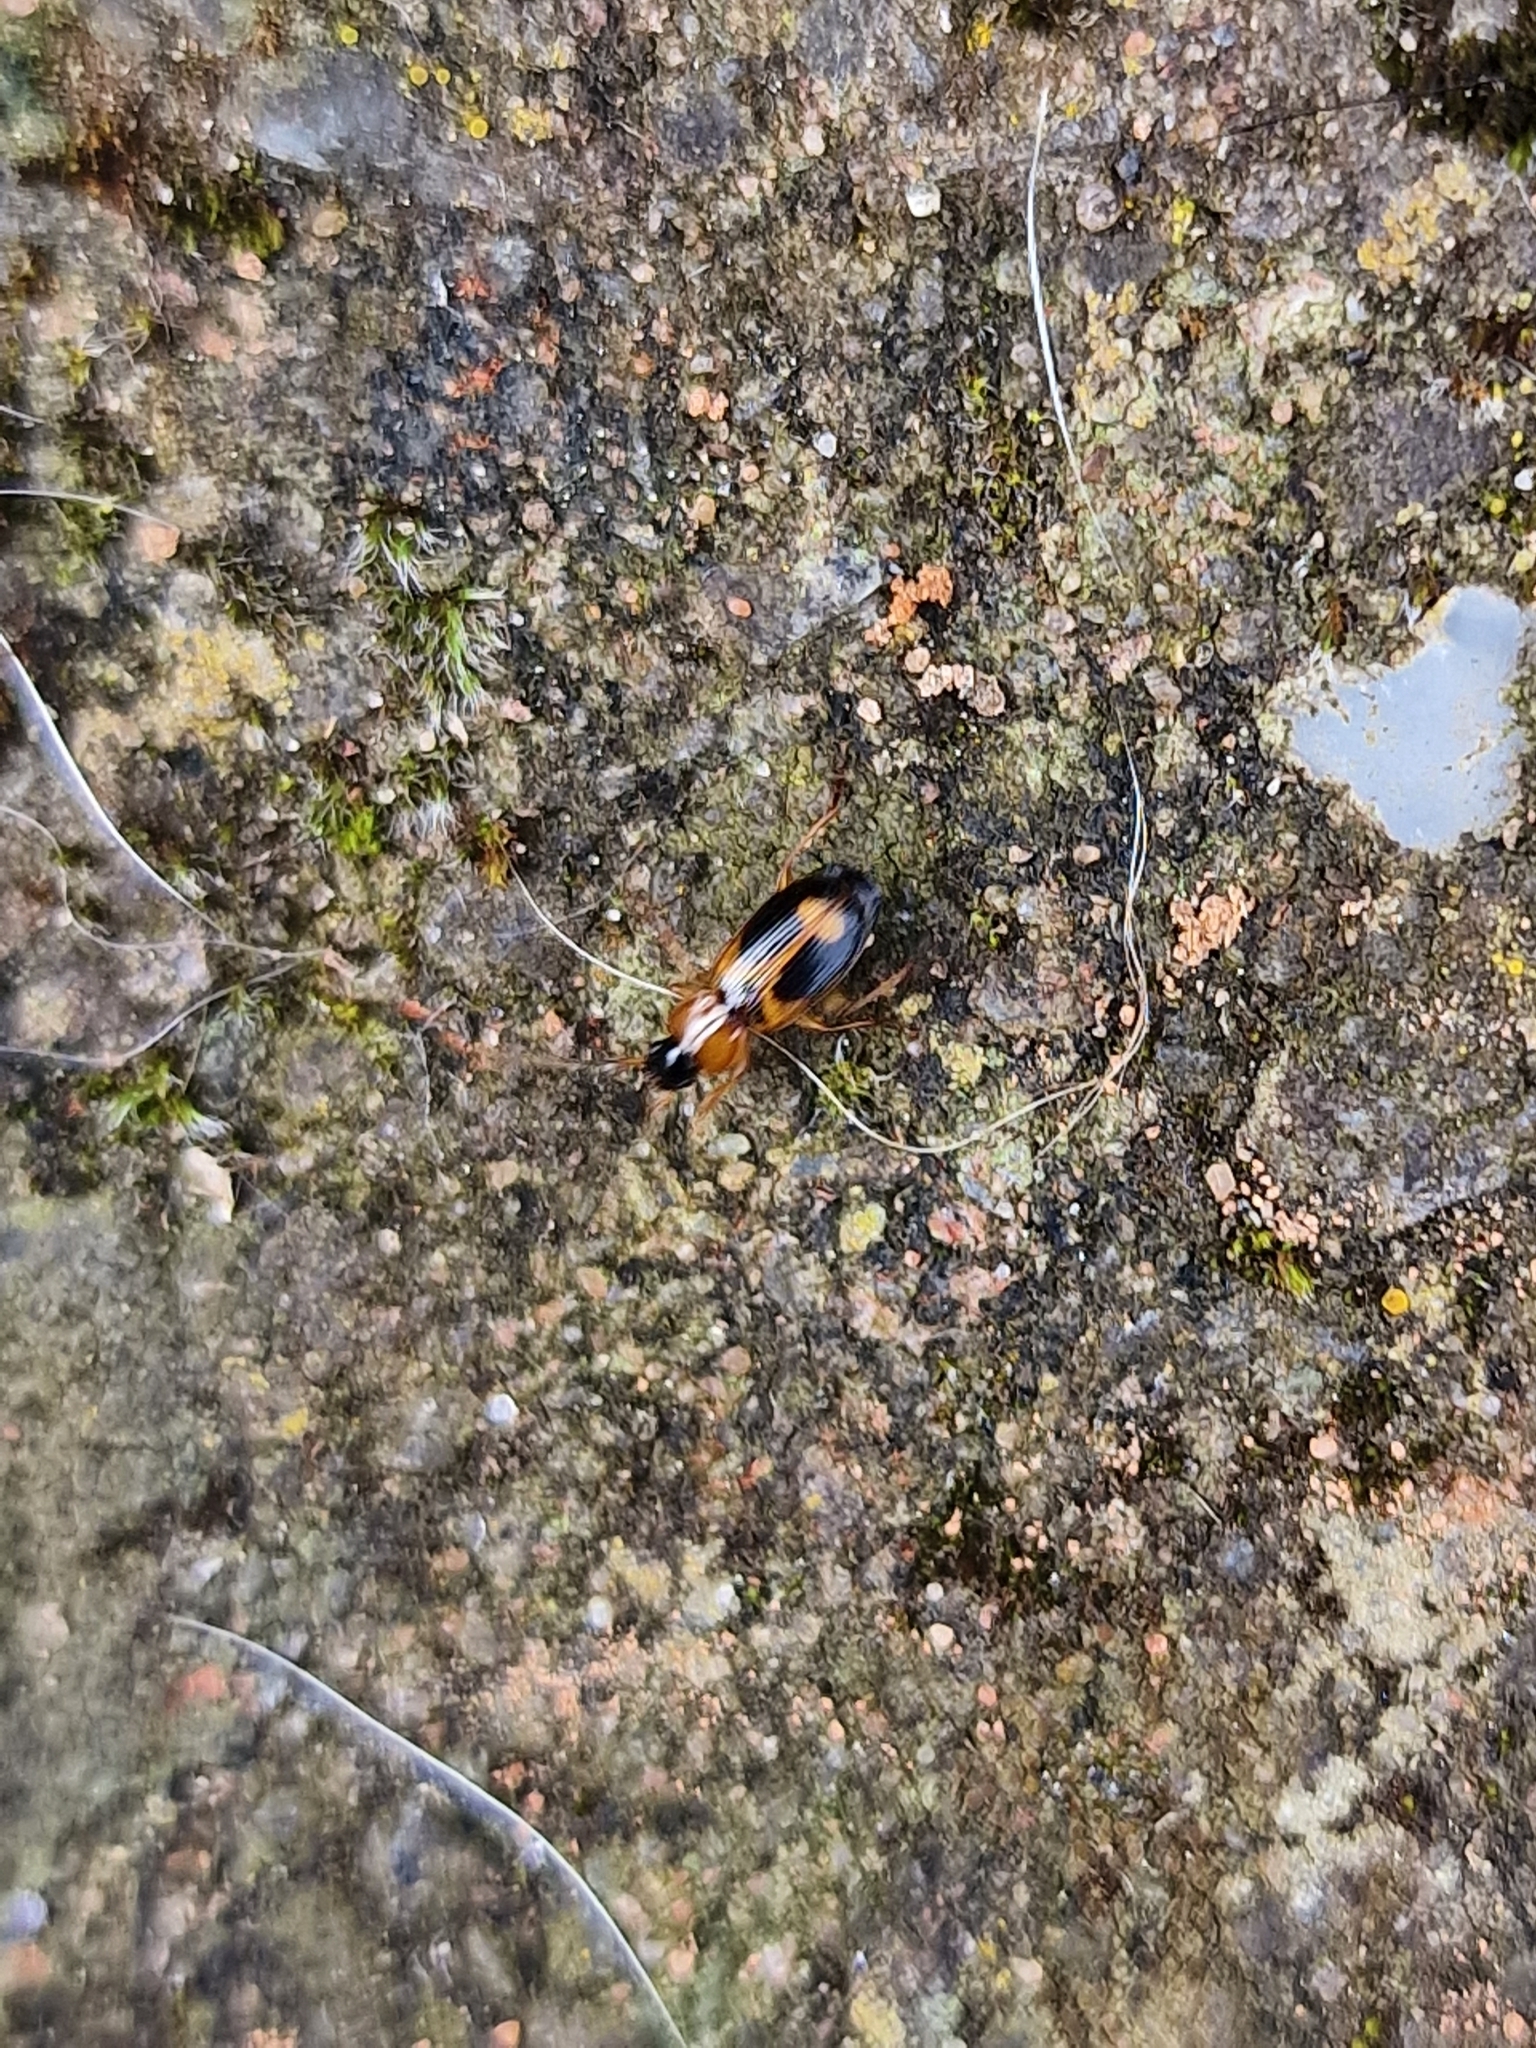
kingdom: Animalia
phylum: Arthropoda
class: Insecta
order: Coleoptera
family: Carabidae
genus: Badister
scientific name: Badister bullatus
